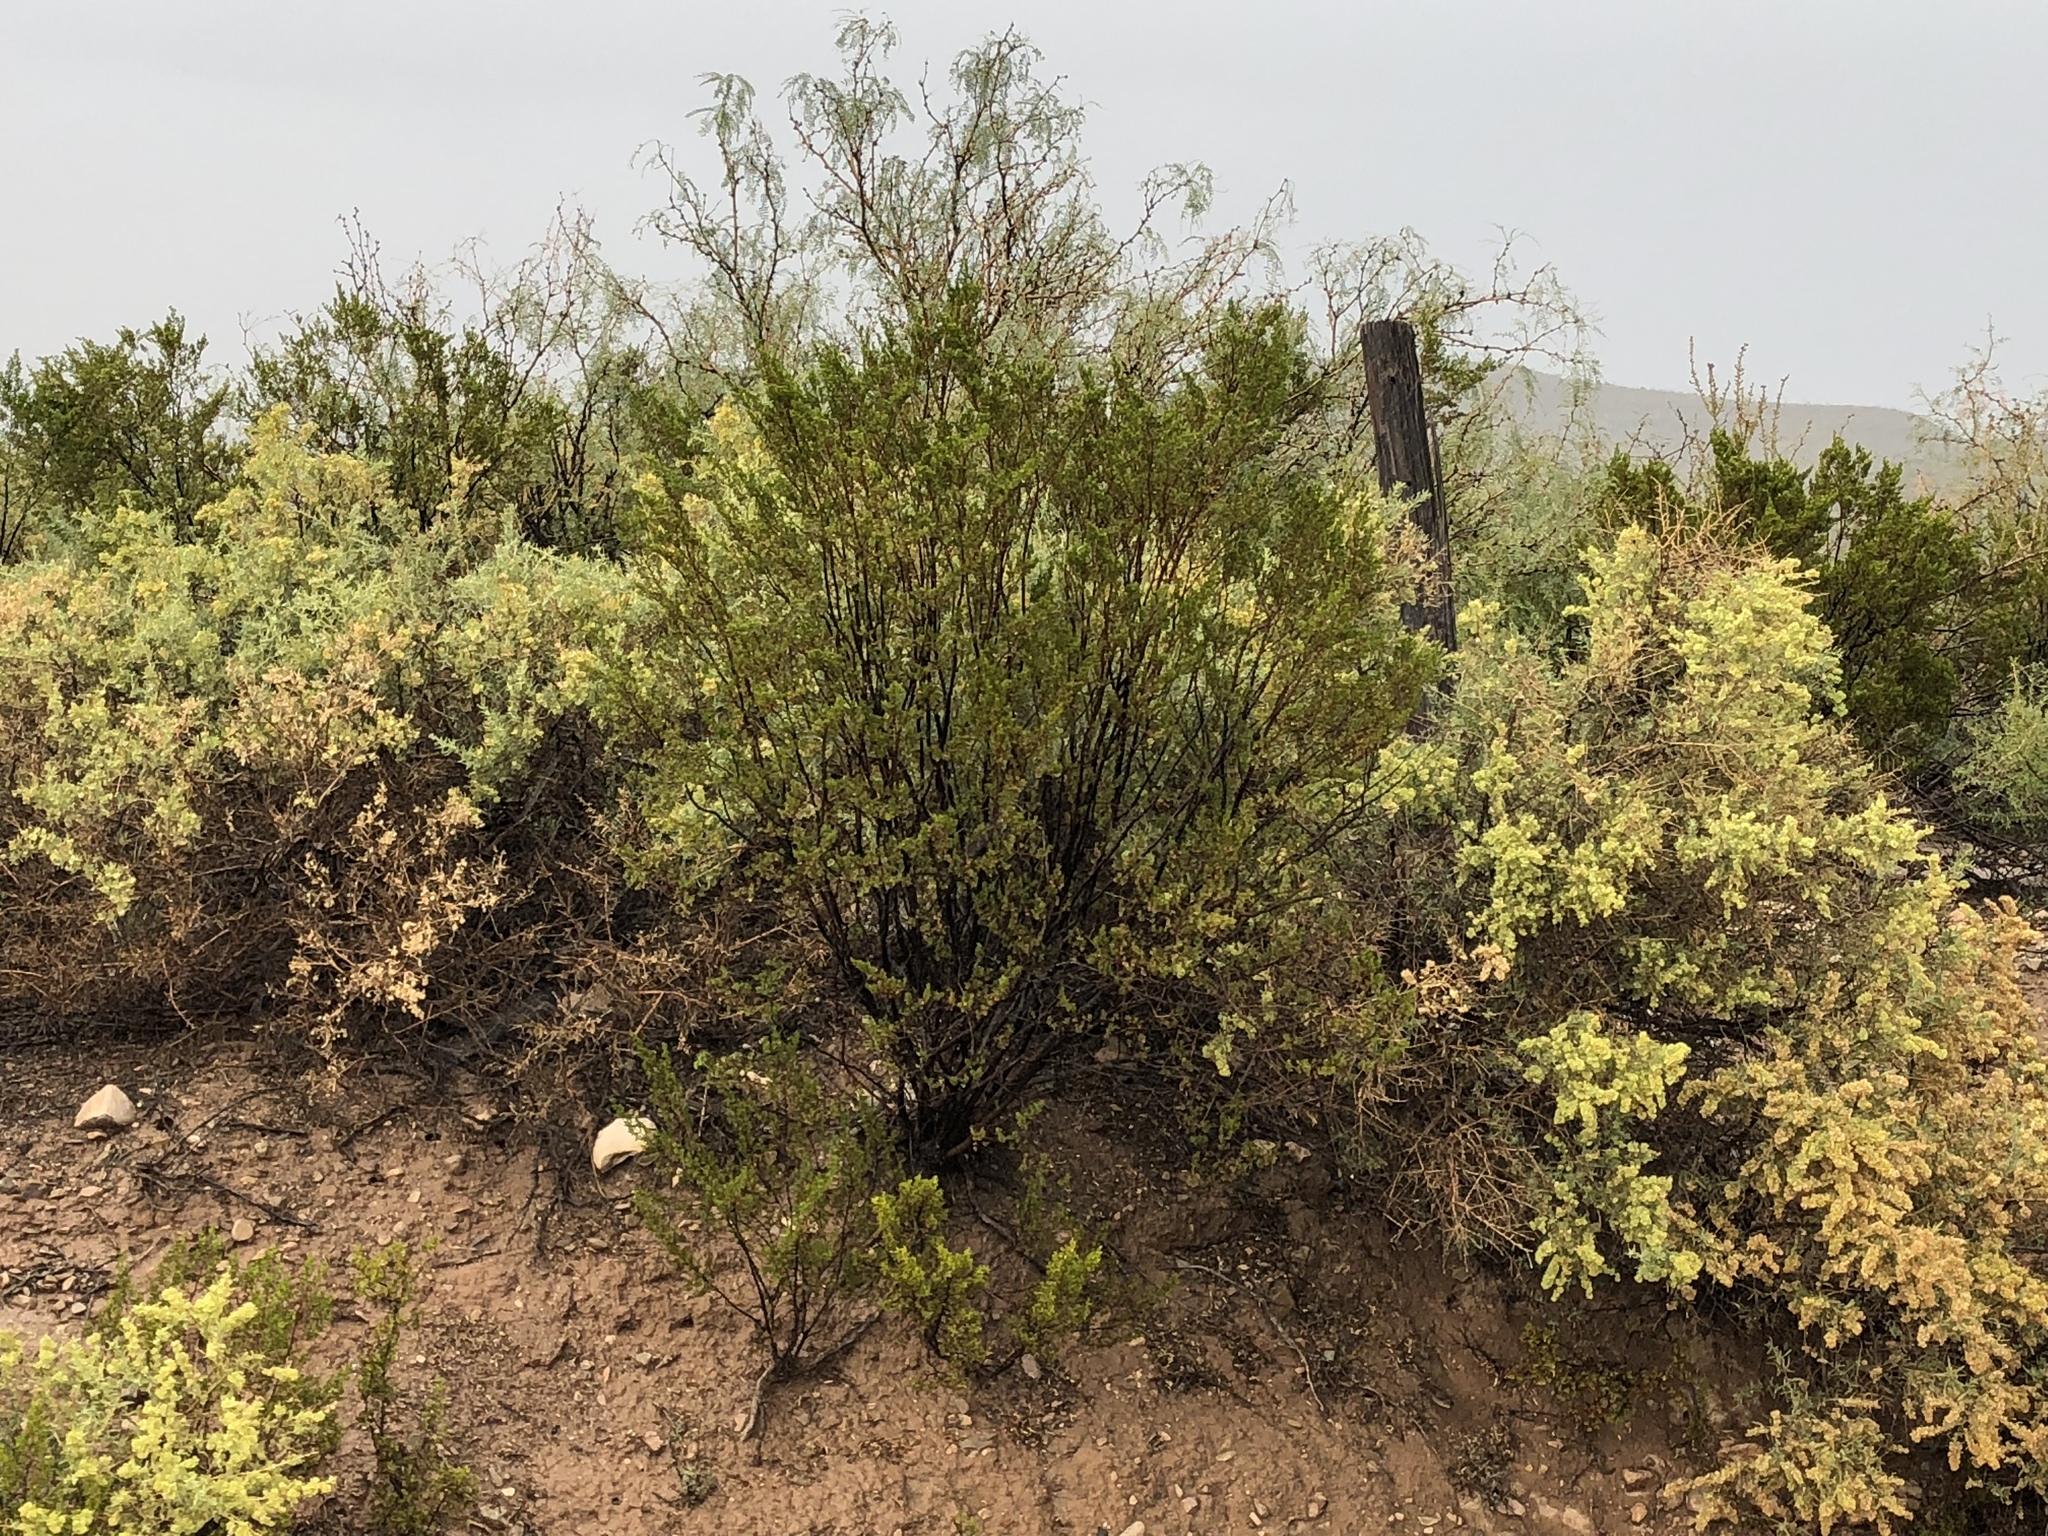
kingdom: Plantae
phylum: Tracheophyta
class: Magnoliopsida
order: Zygophyllales
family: Zygophyllaceae
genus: Larrea
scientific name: Larrea tridentata
